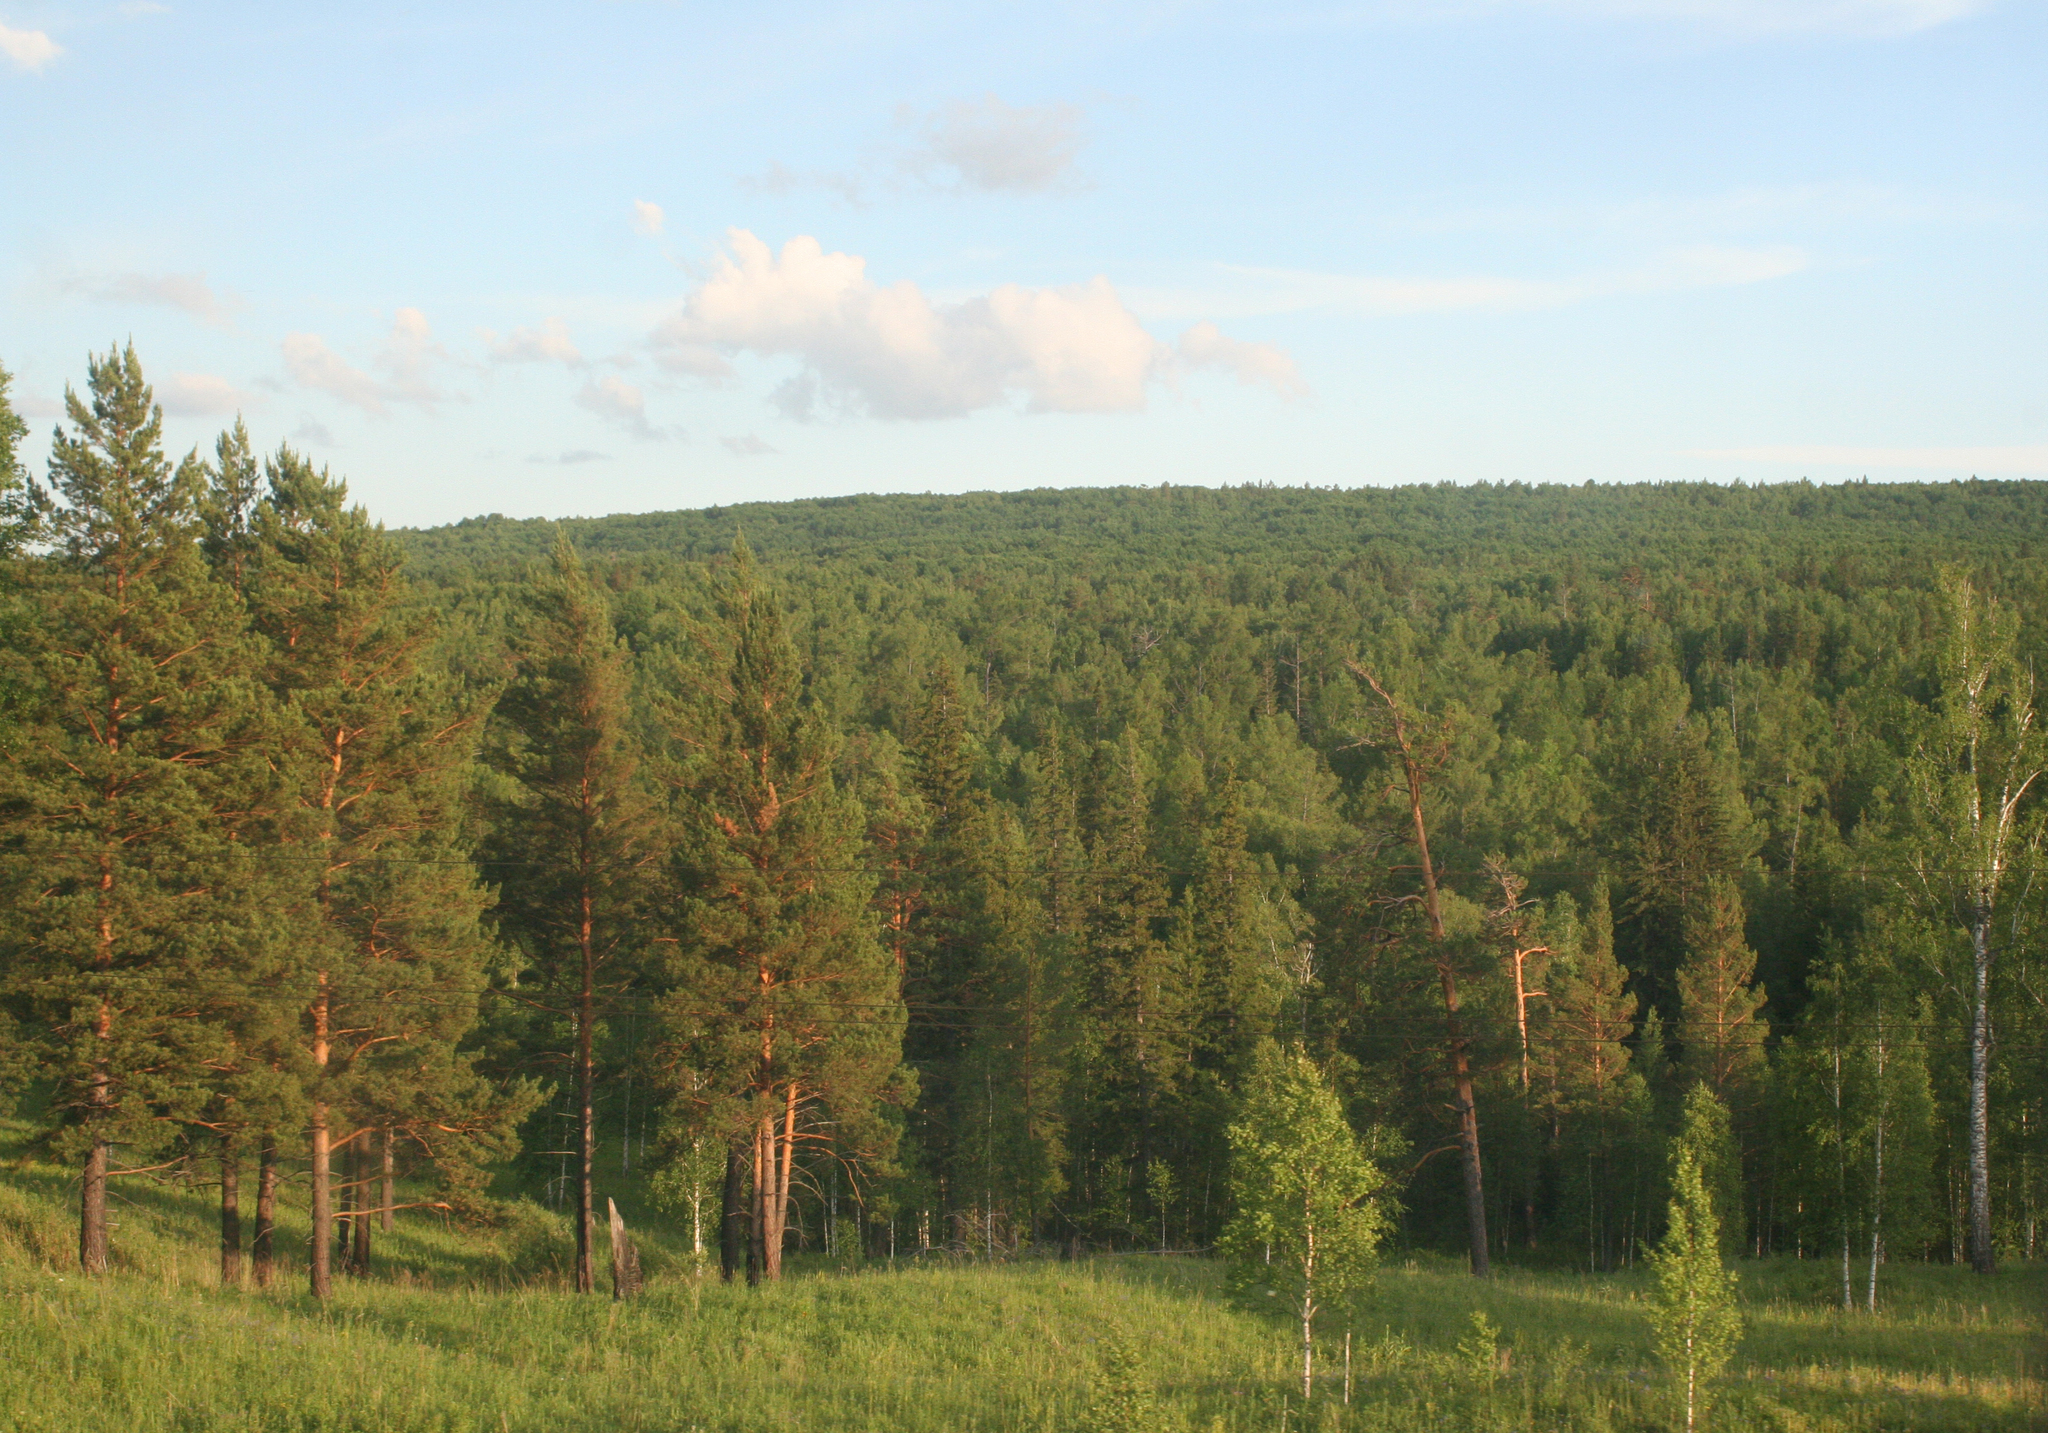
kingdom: Plantae
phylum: Tracheophyta
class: Pinopsida
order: Pinales
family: Pinaceae
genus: Pinus
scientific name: Pinus sylvestris
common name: Scots pine
